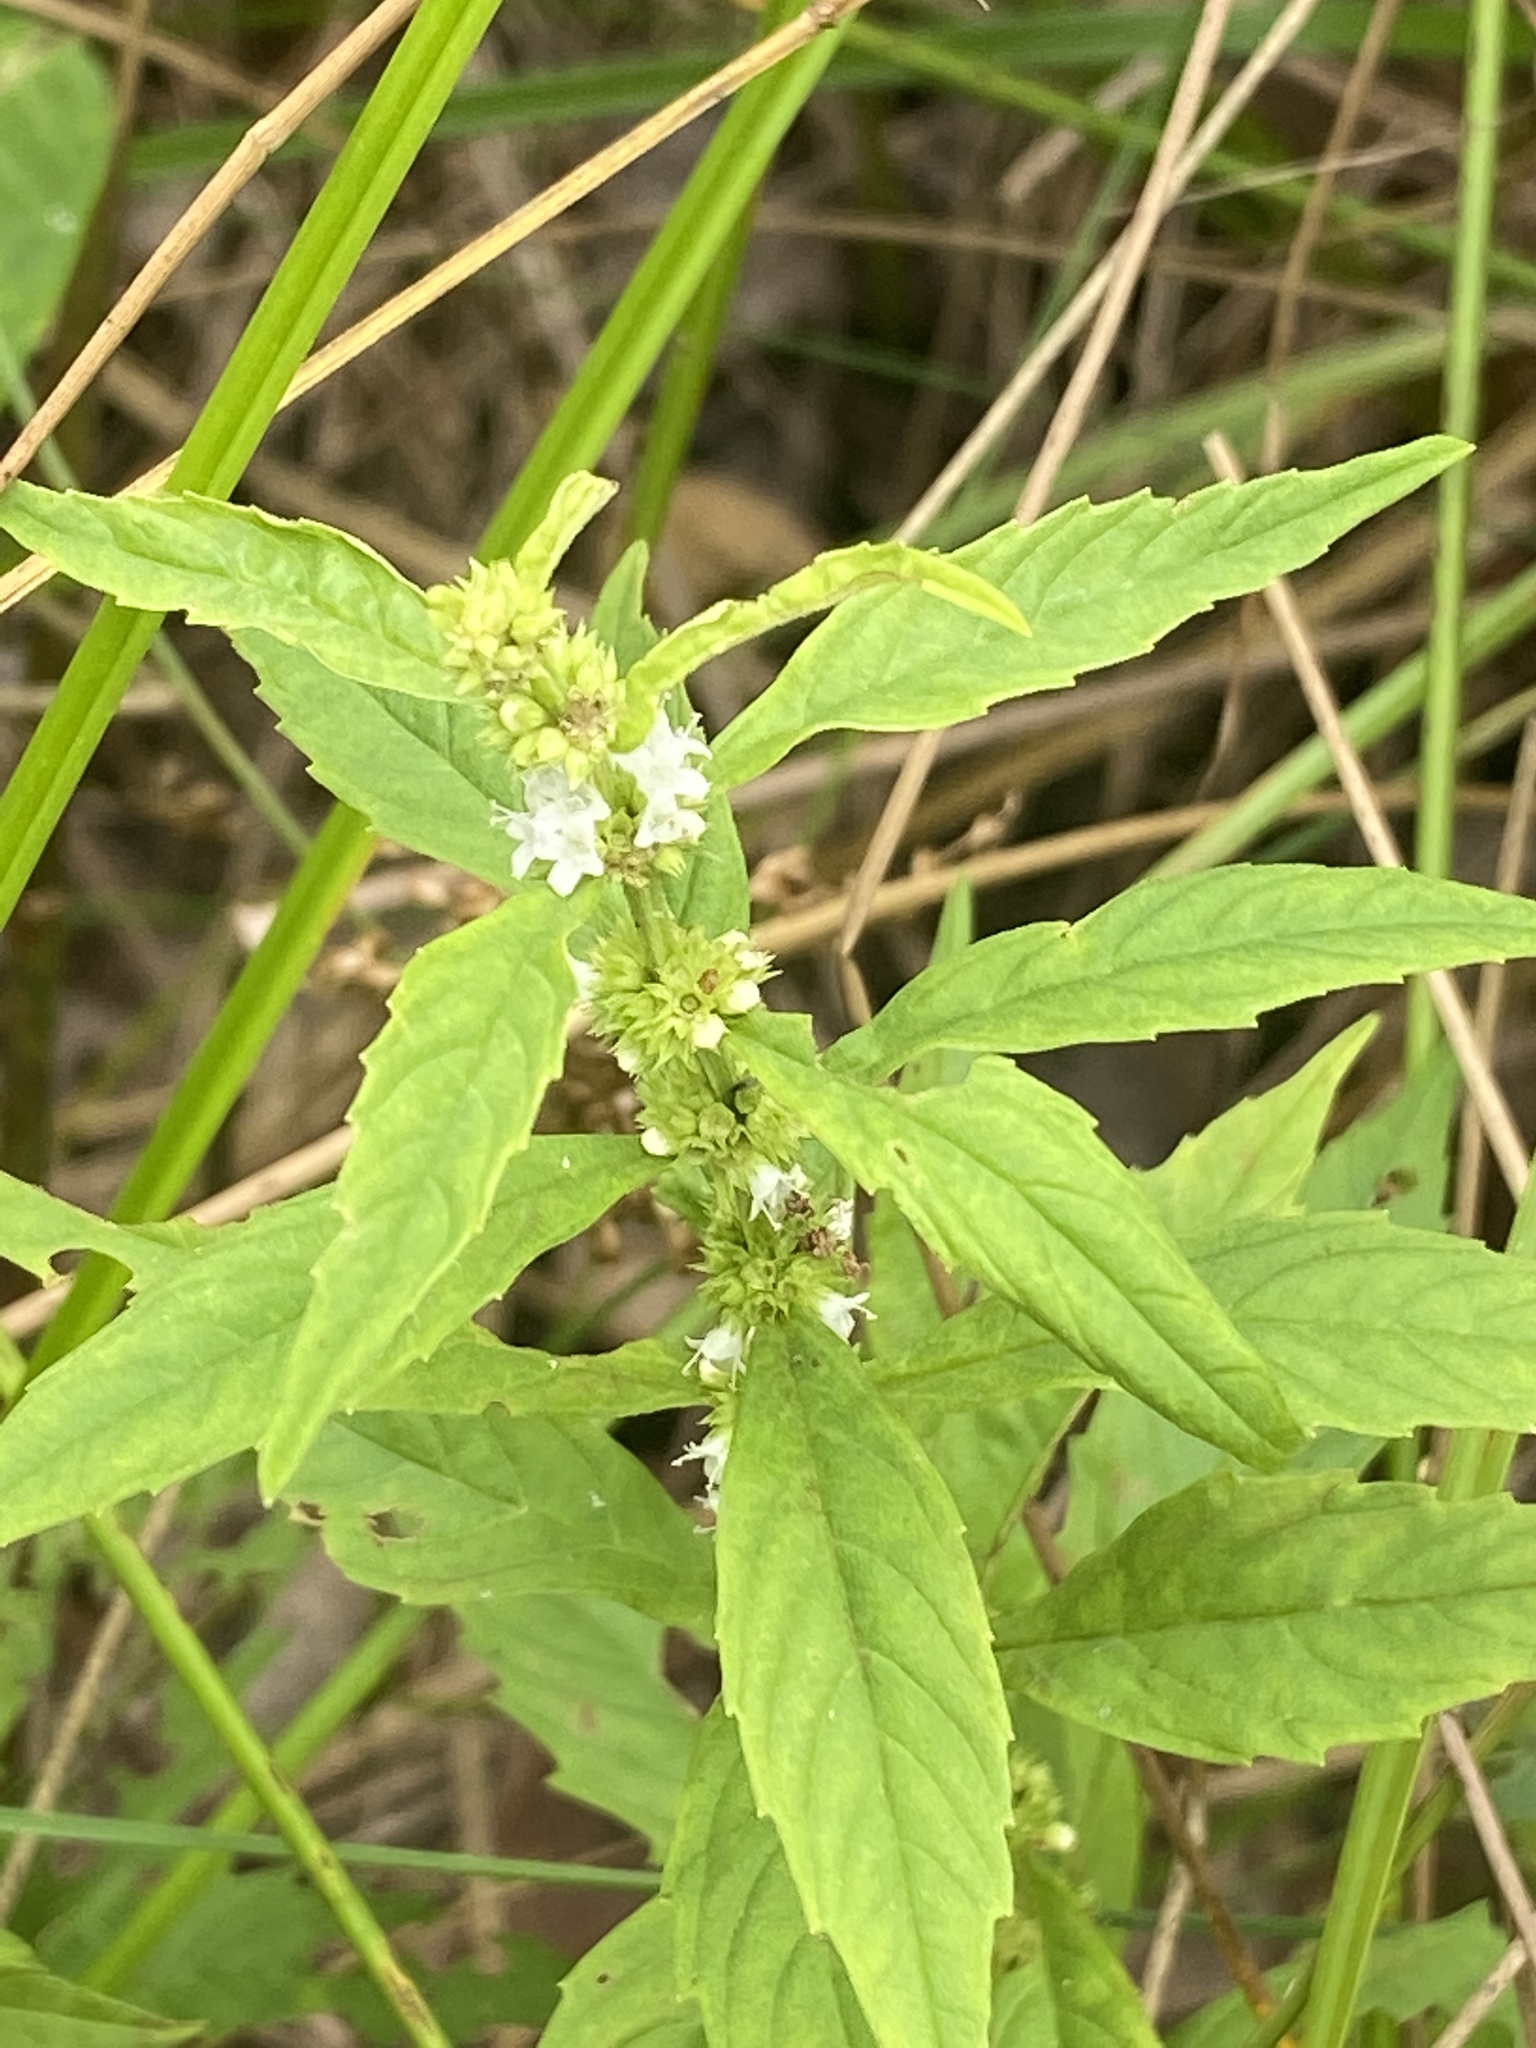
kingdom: Plantae
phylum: Tracheophyta
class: Magnoliopsida
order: Lamiales
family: Lamiaceae
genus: Lycopus
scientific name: Lycopus uniflorus
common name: Northern bugleweed
